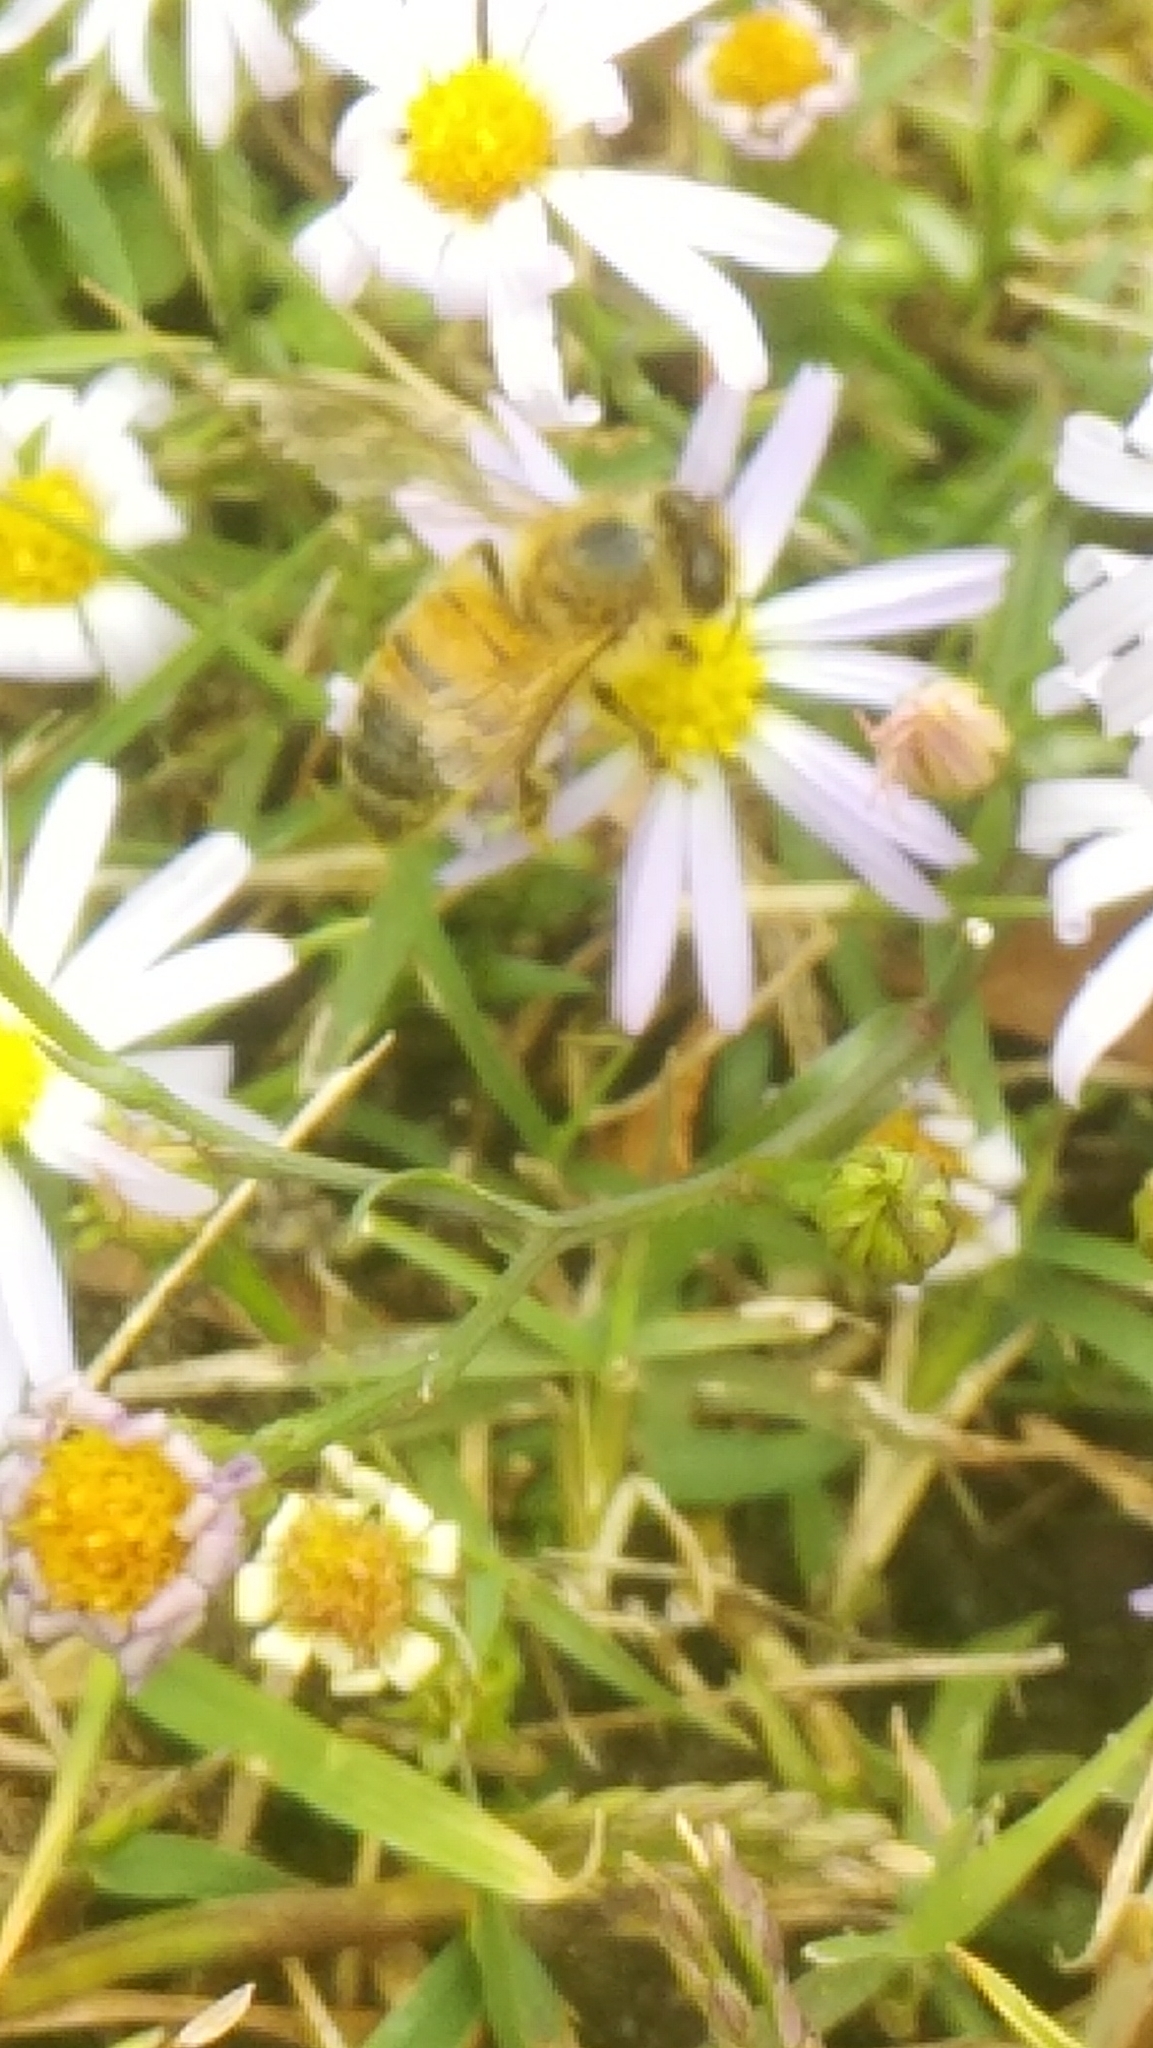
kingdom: Animalia
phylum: Arthropoda
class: Insecta
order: Hymenoptera
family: Apidae
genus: Apis
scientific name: Apis mellifera
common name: Honey bee
